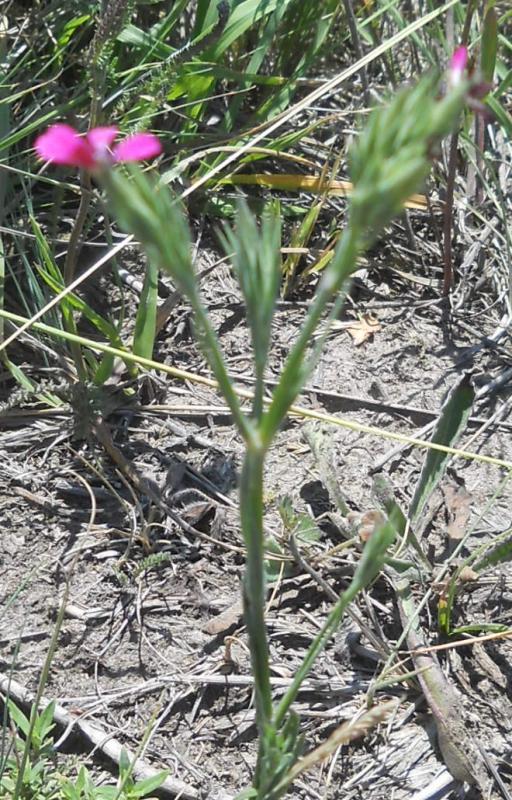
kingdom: Plantae
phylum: Tracheophyta
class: Magnoliopsida
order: Caryophyllales
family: Caryophyllaceae
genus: Dianthus
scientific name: Dianthus armeria
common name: Deptford pink
